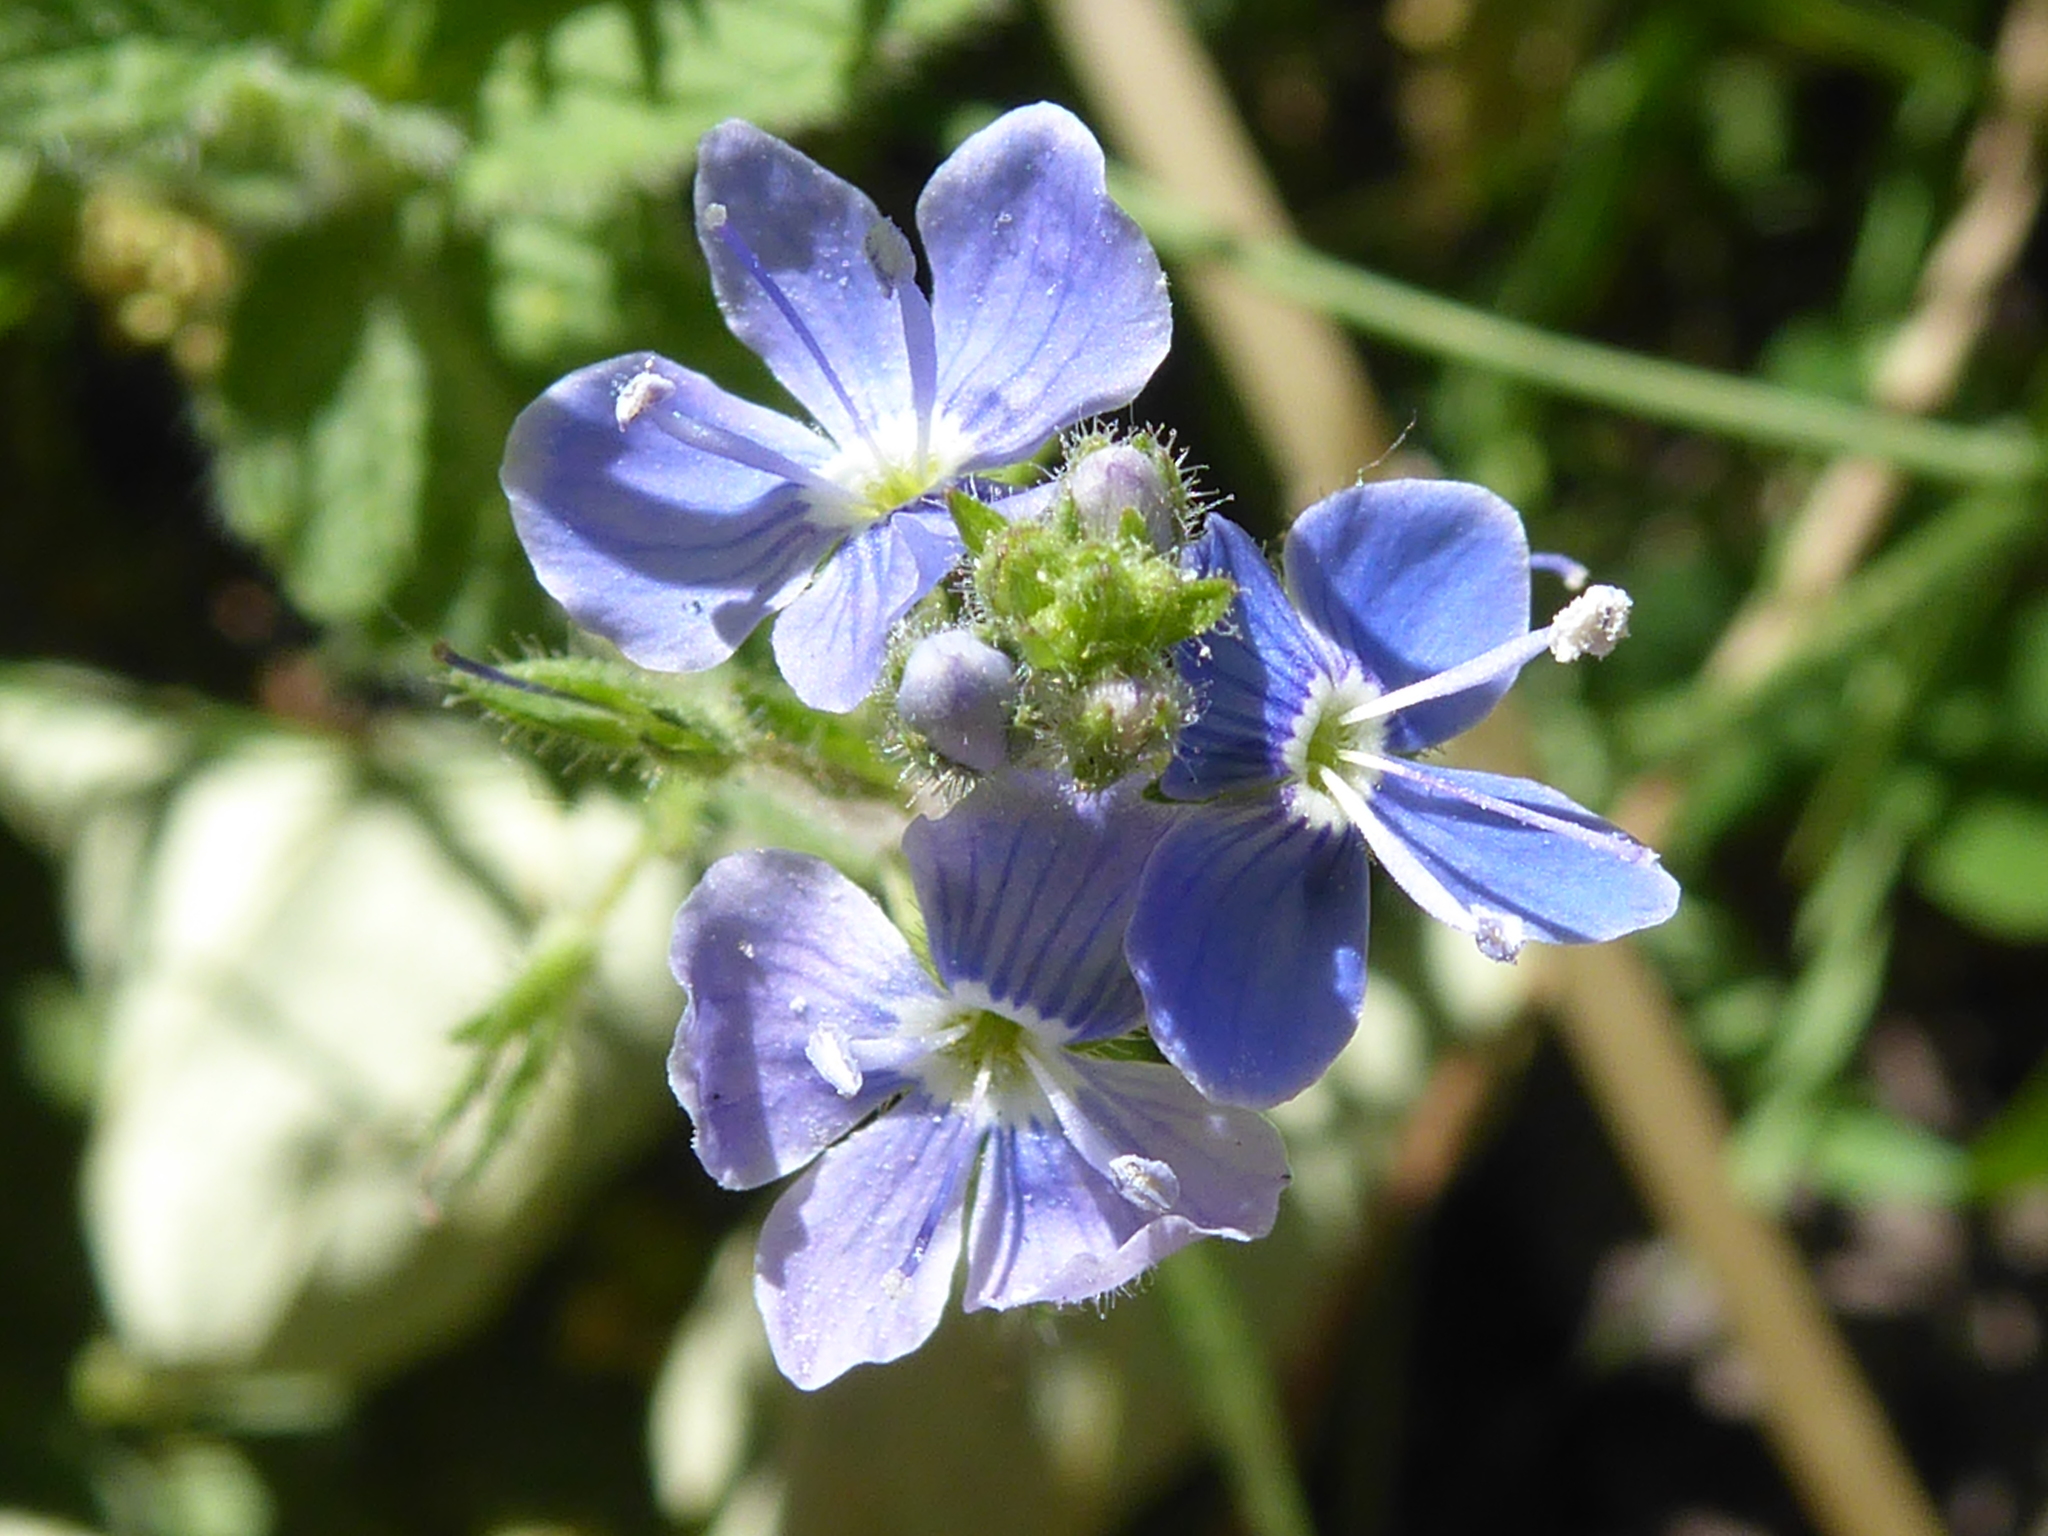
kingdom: Plantae
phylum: Tracheophyta
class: Magnoliopsida
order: Lamiales
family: Plantaginaceae
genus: Veronica
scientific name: Veronica chamaedrys
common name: Germander speedwell
